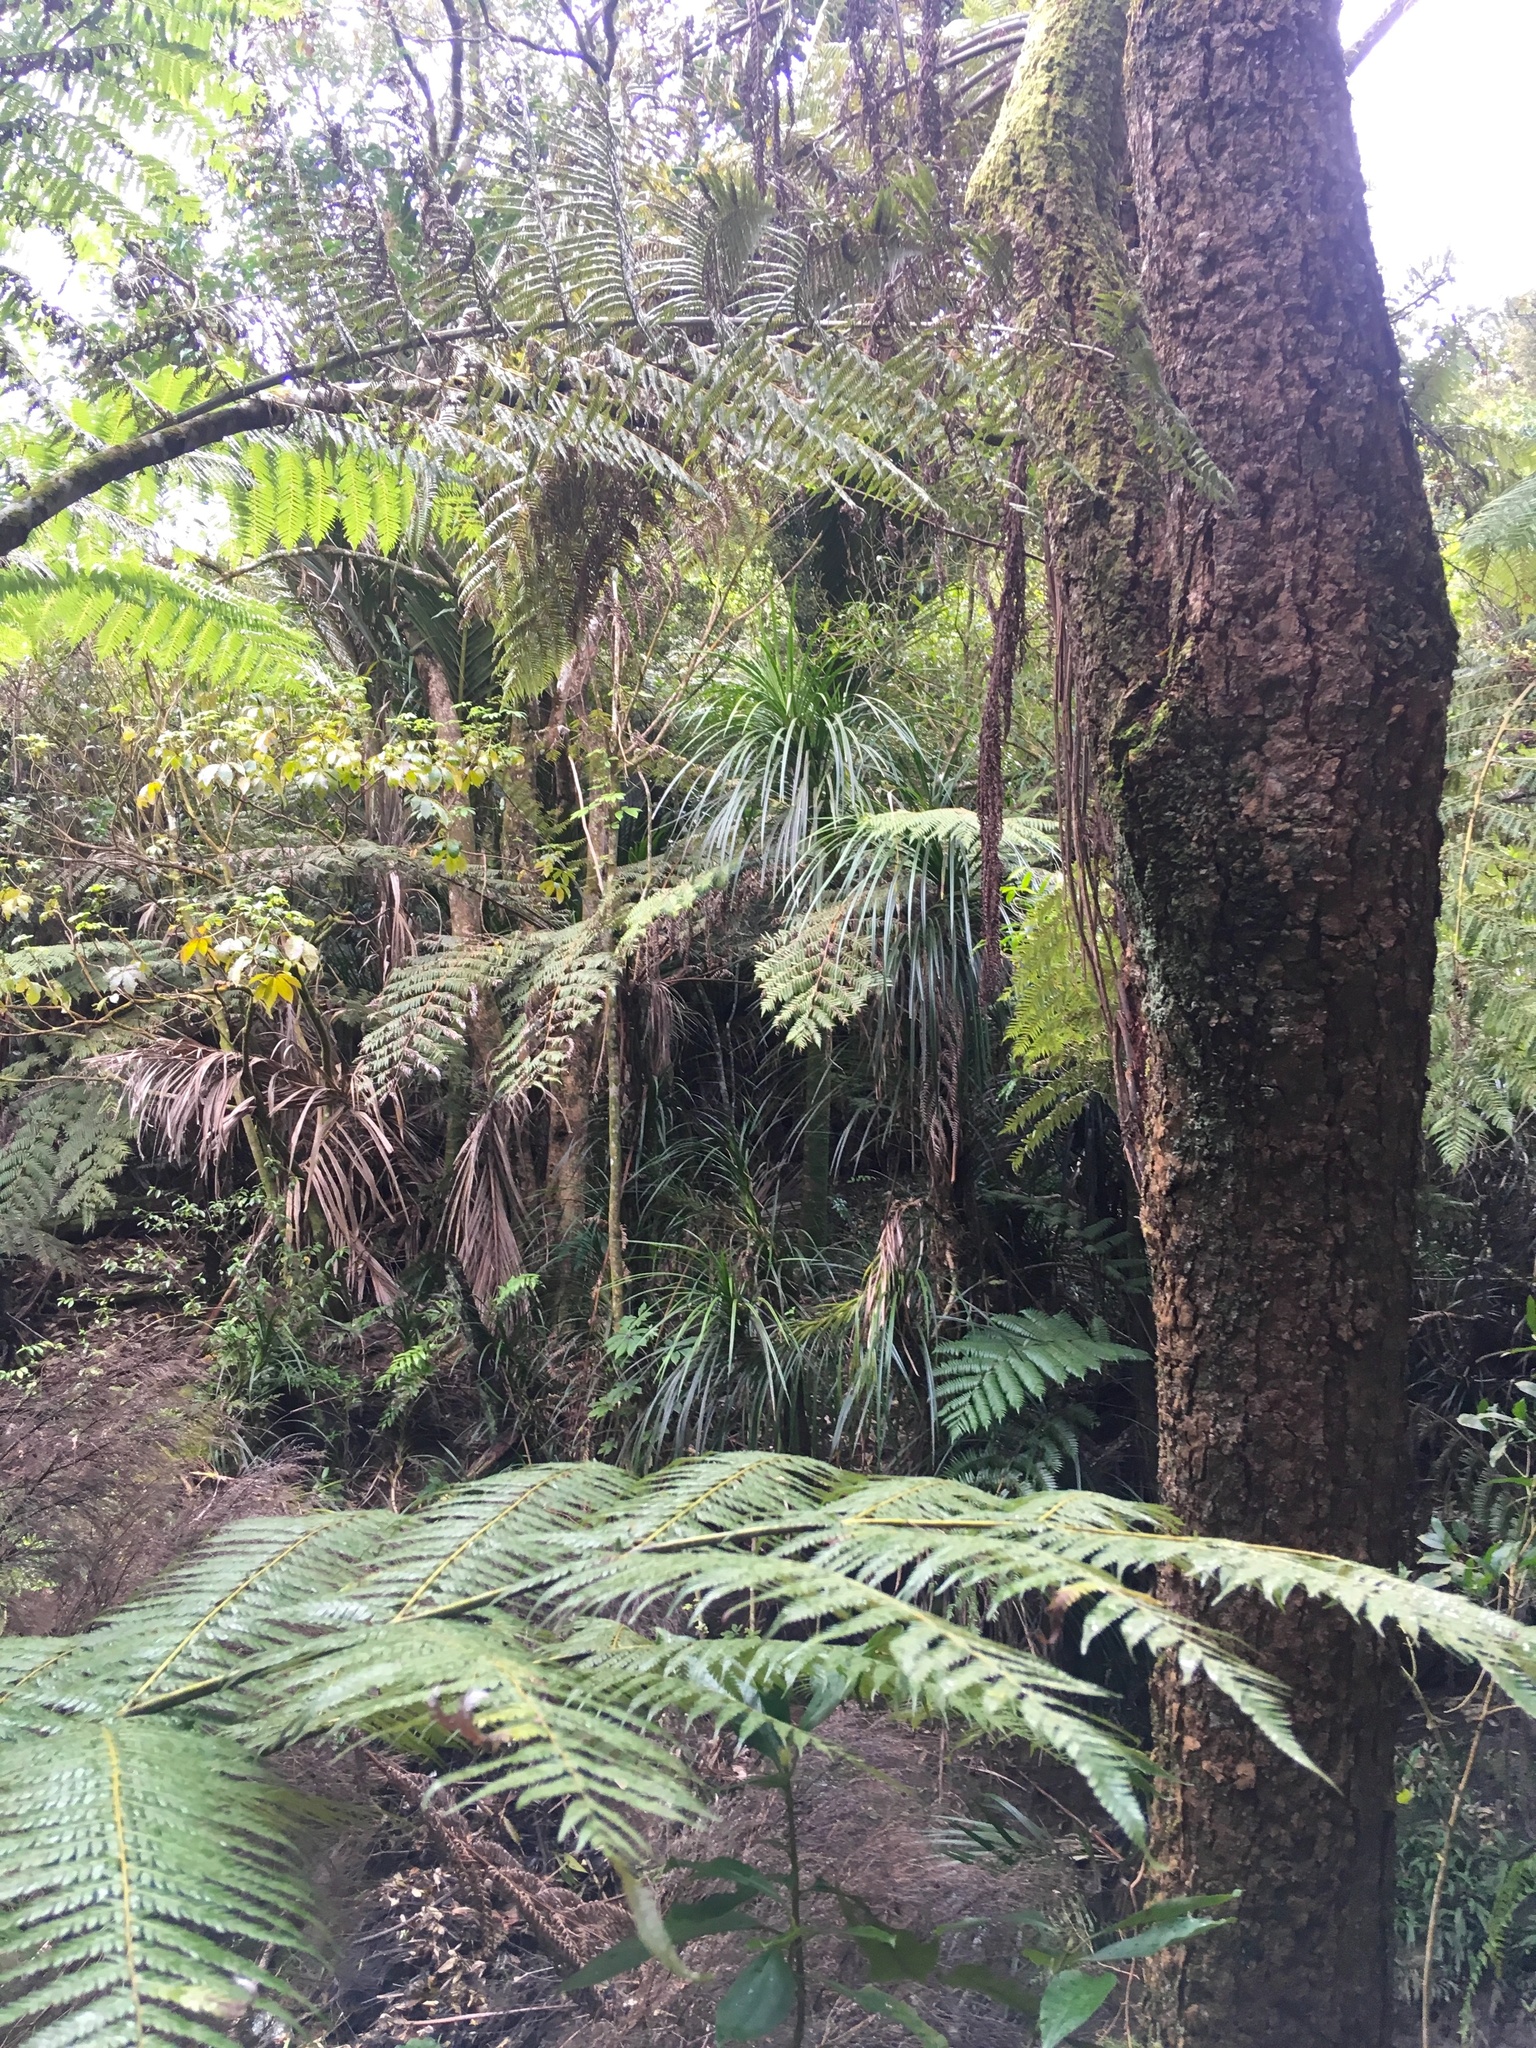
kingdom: Plantae
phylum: Tracheophyta
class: Liliopsida
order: Pandanales
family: Pandanaceae
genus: Freycinetia
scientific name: Freycinetia banksii
